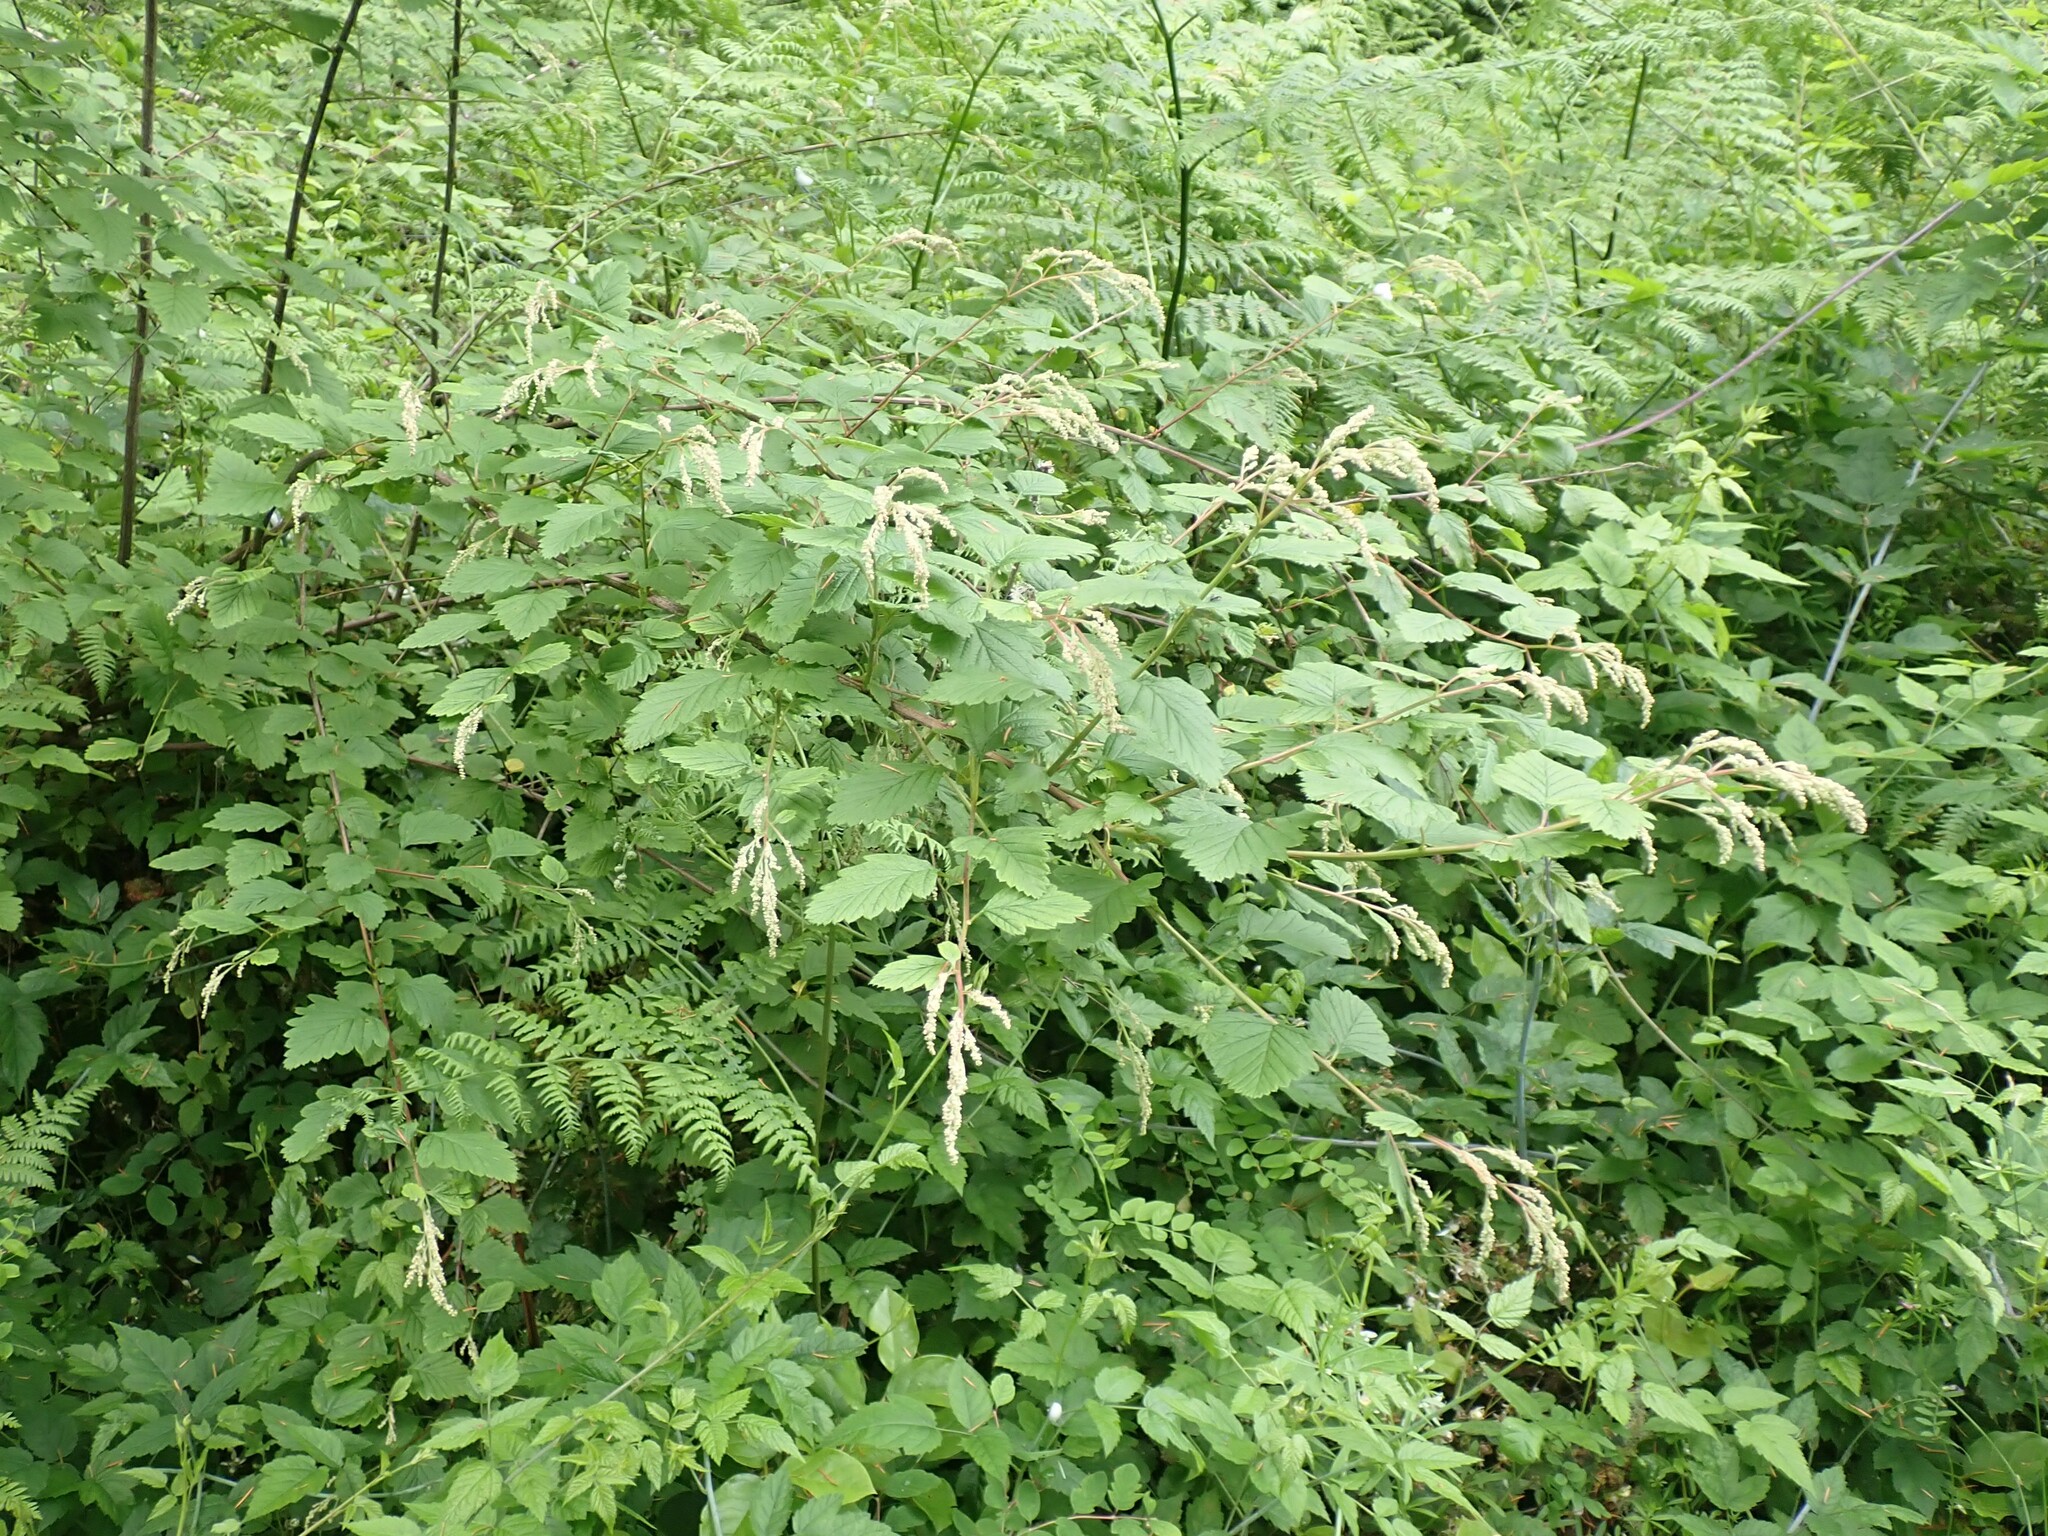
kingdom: Plantae
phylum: Tracheophyta
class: Magnoliopsida
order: Rosales
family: Rosaceae
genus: Holodiscus
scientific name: Holodiscus discolor
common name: Oceanspray
